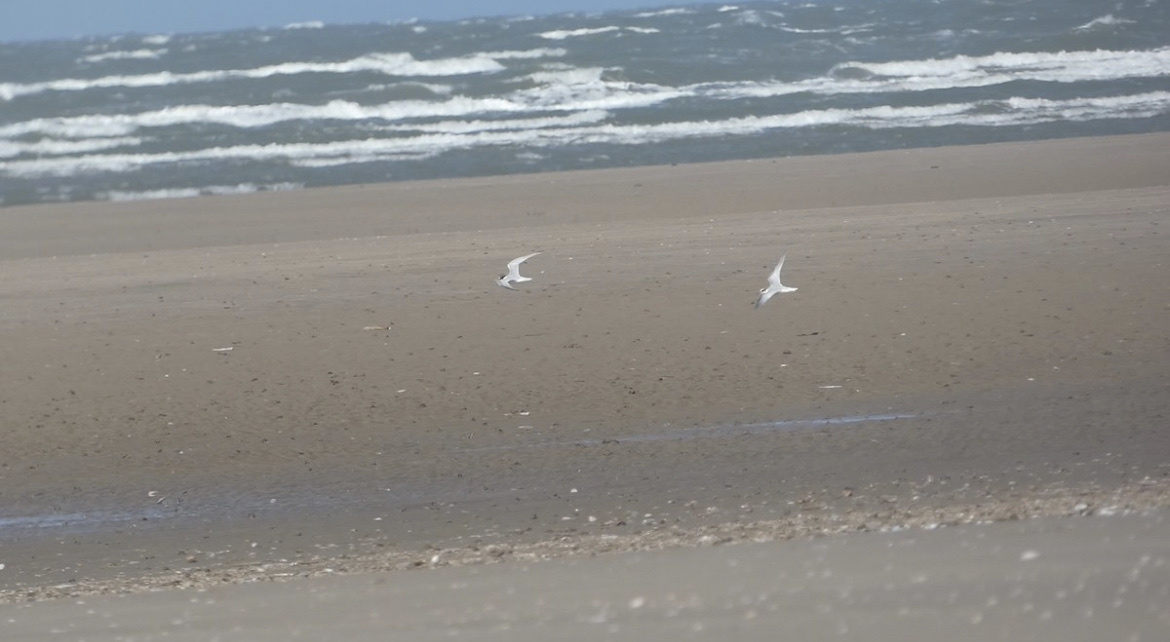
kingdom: Animalia
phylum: Chordata
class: Aves
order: Charadriiformes
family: Laridae
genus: Sternula
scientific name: Sternula albifrons
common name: Little tern
